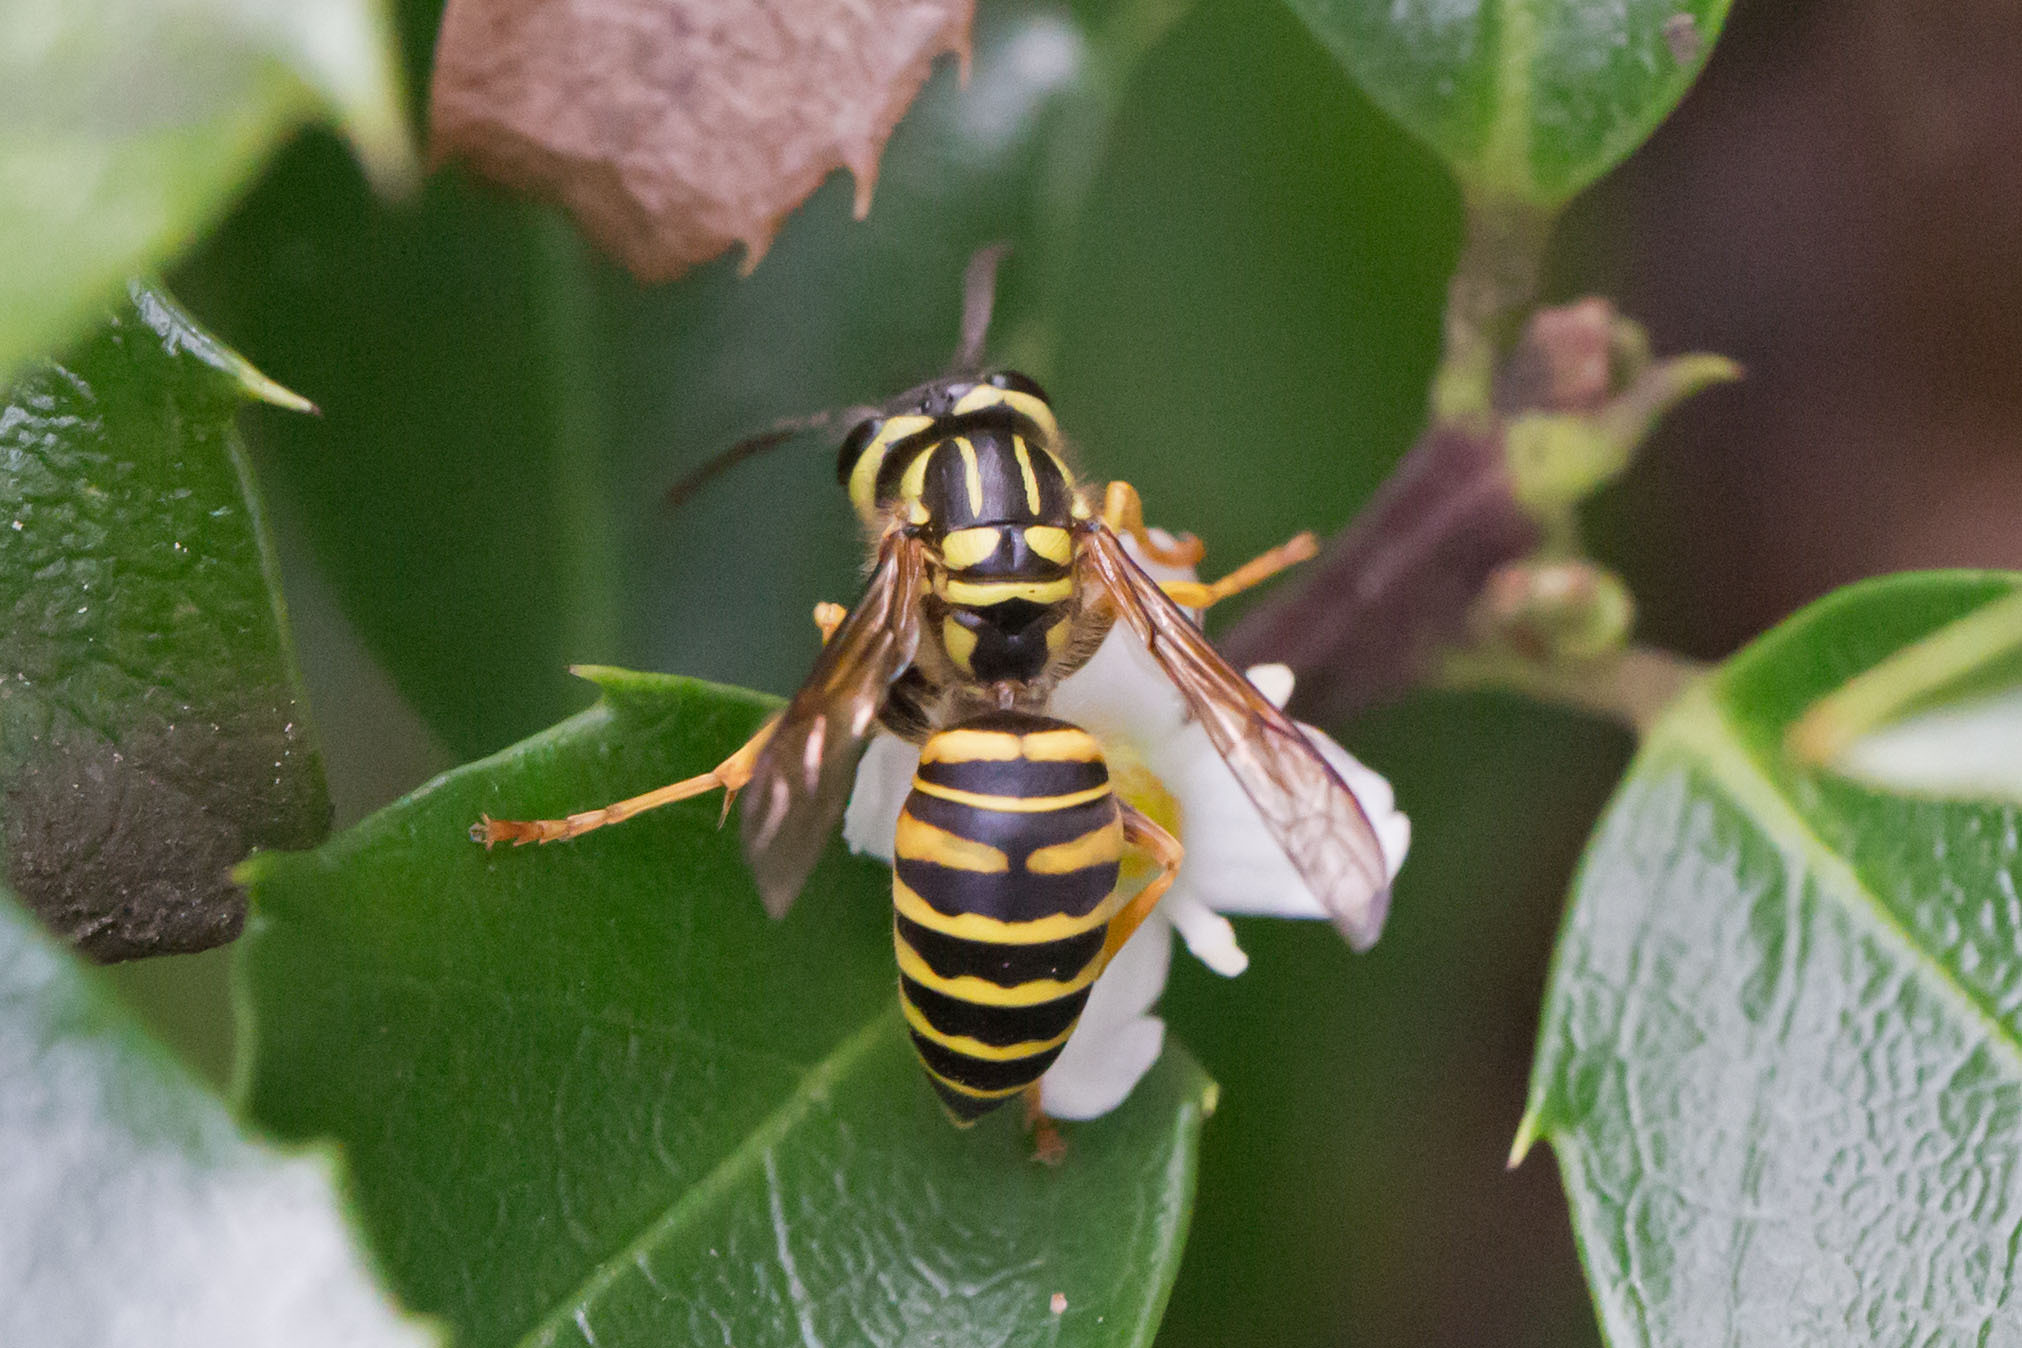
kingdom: Animalia
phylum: Arthropoda
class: Insecta
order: Hymenoptera
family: Vespidae
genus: Vespula
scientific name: Vespula squamosa
